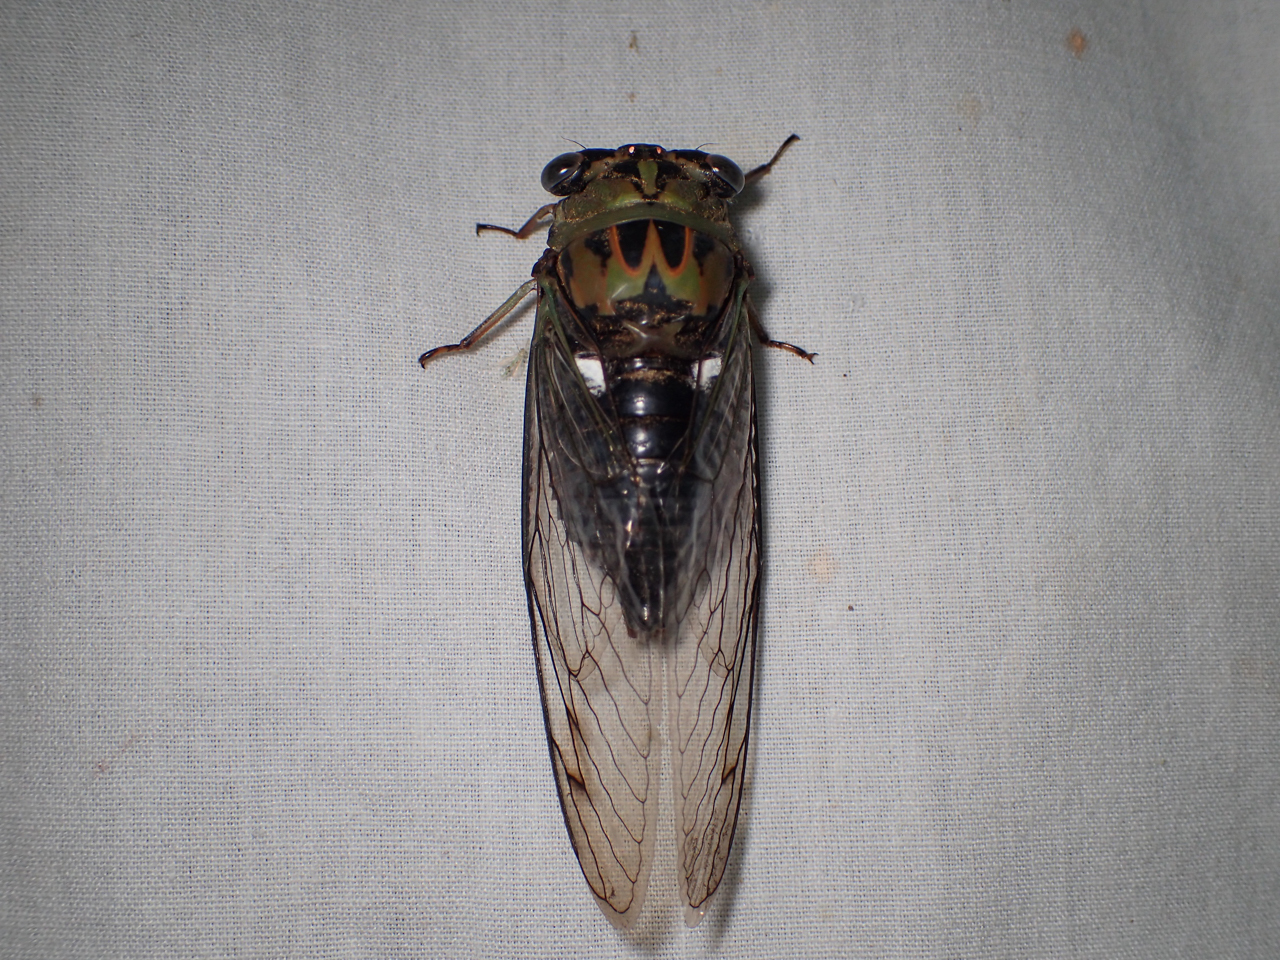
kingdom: Animalia
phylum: Arthropoda
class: Insecta
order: Hemiptera
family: Cicadidae
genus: Neotibicen
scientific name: Neotibicen pruinosus
